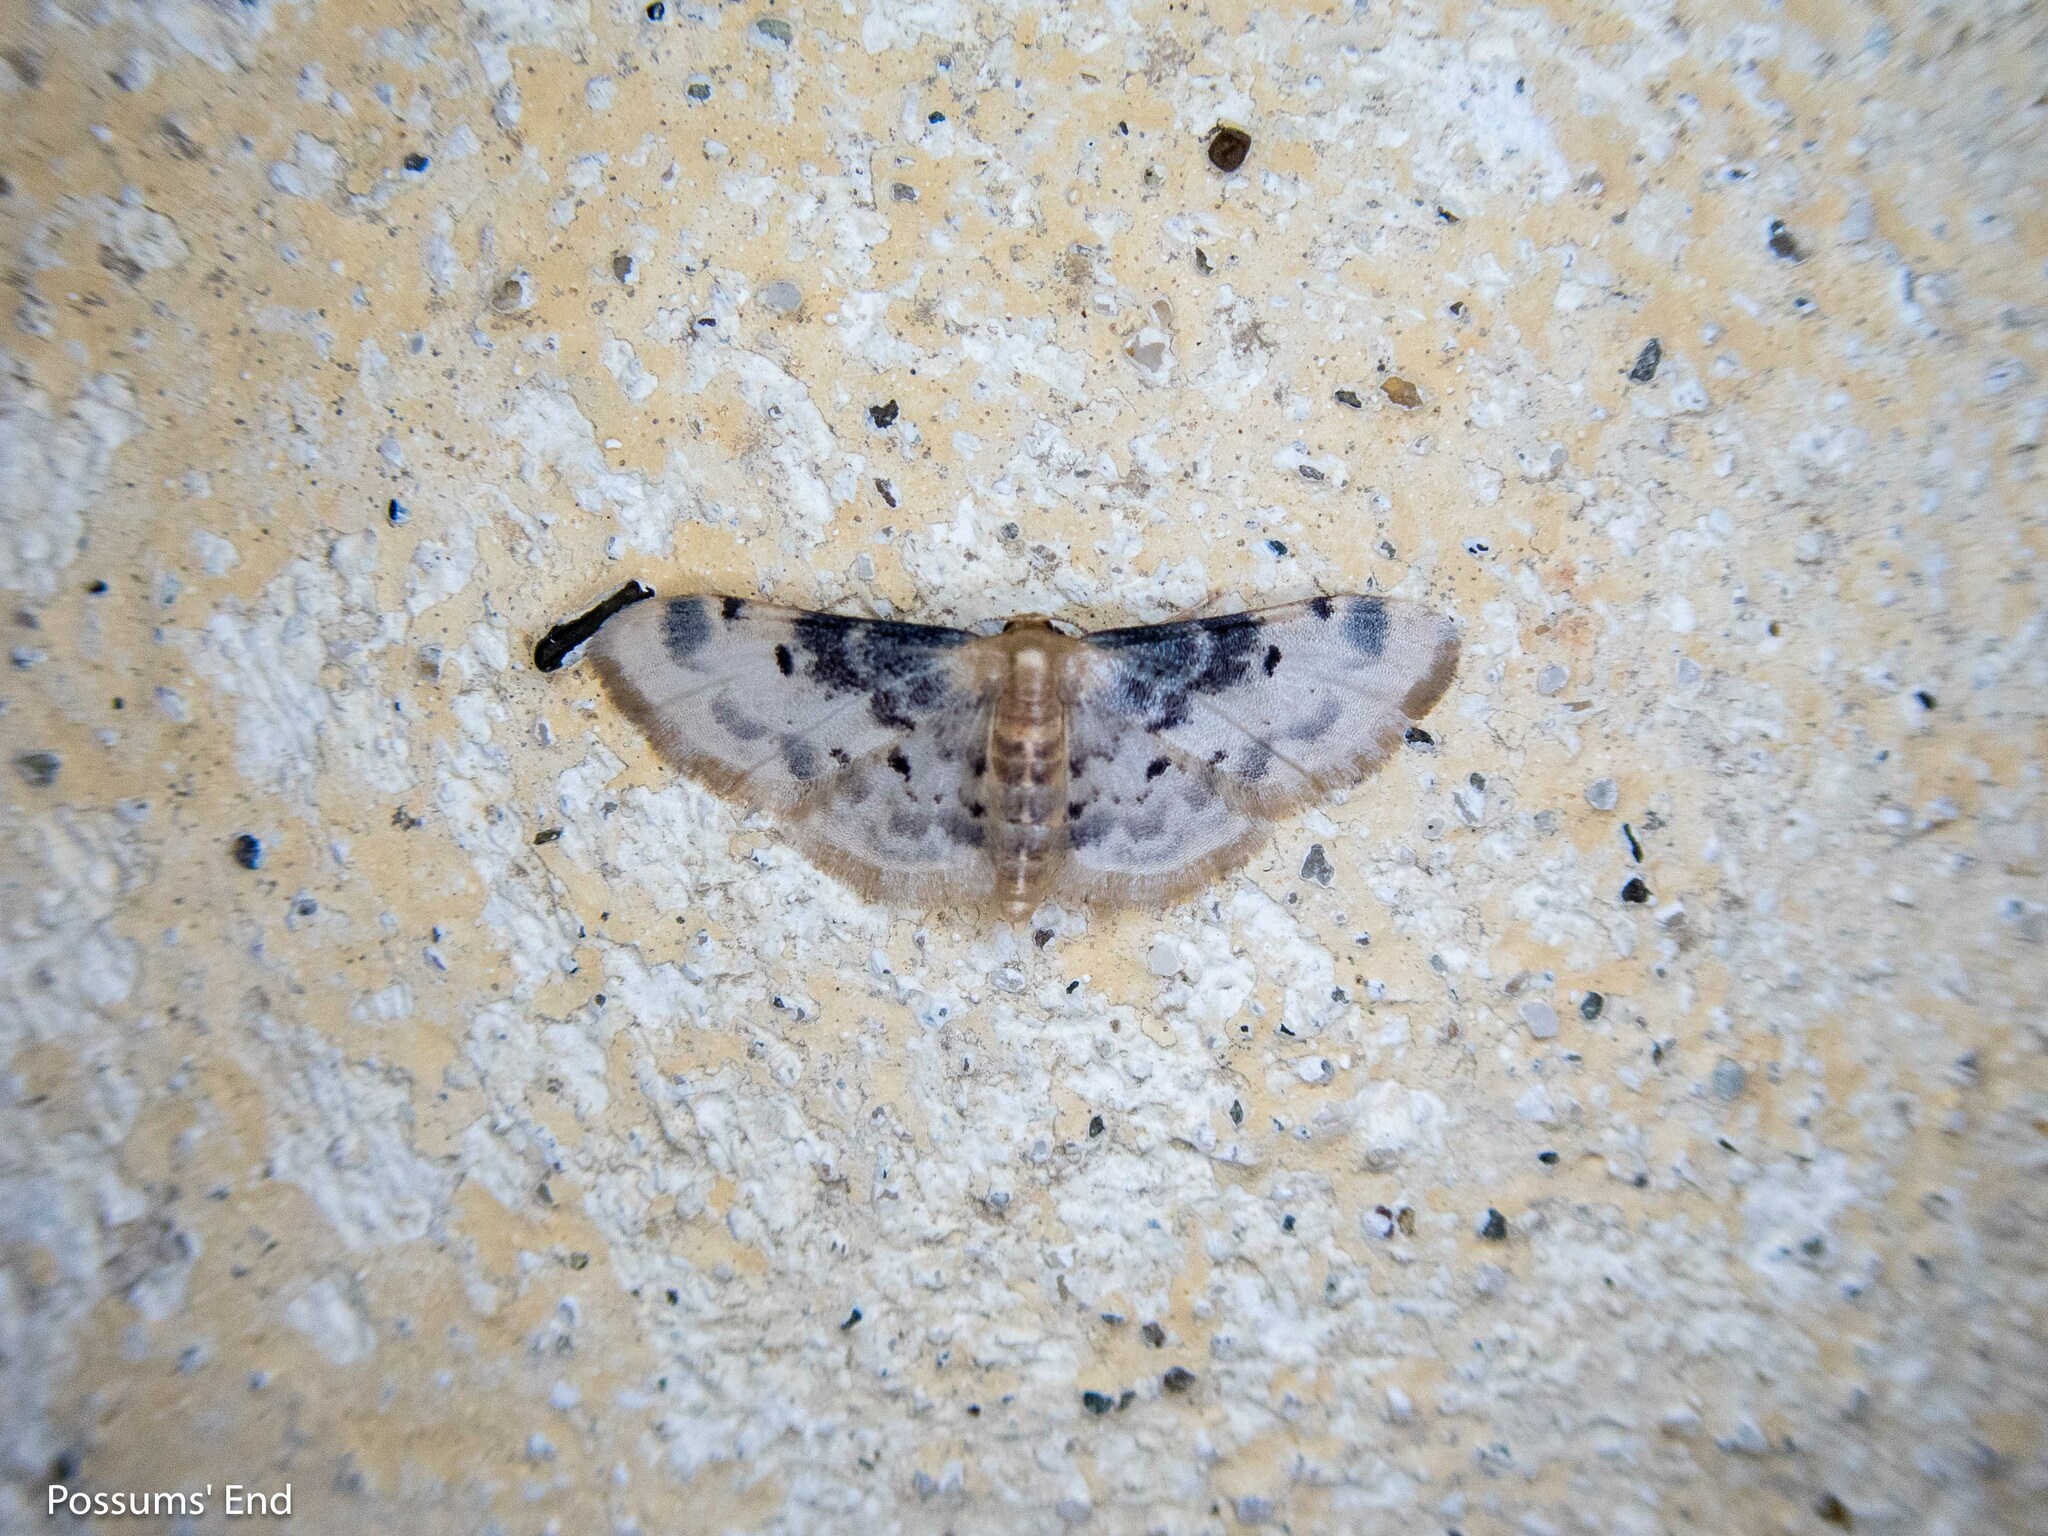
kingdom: Animalia
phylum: Arthropoda
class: Insecta
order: Lepidoptera
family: Geometridae
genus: Idaea
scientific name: Idaea filicata
